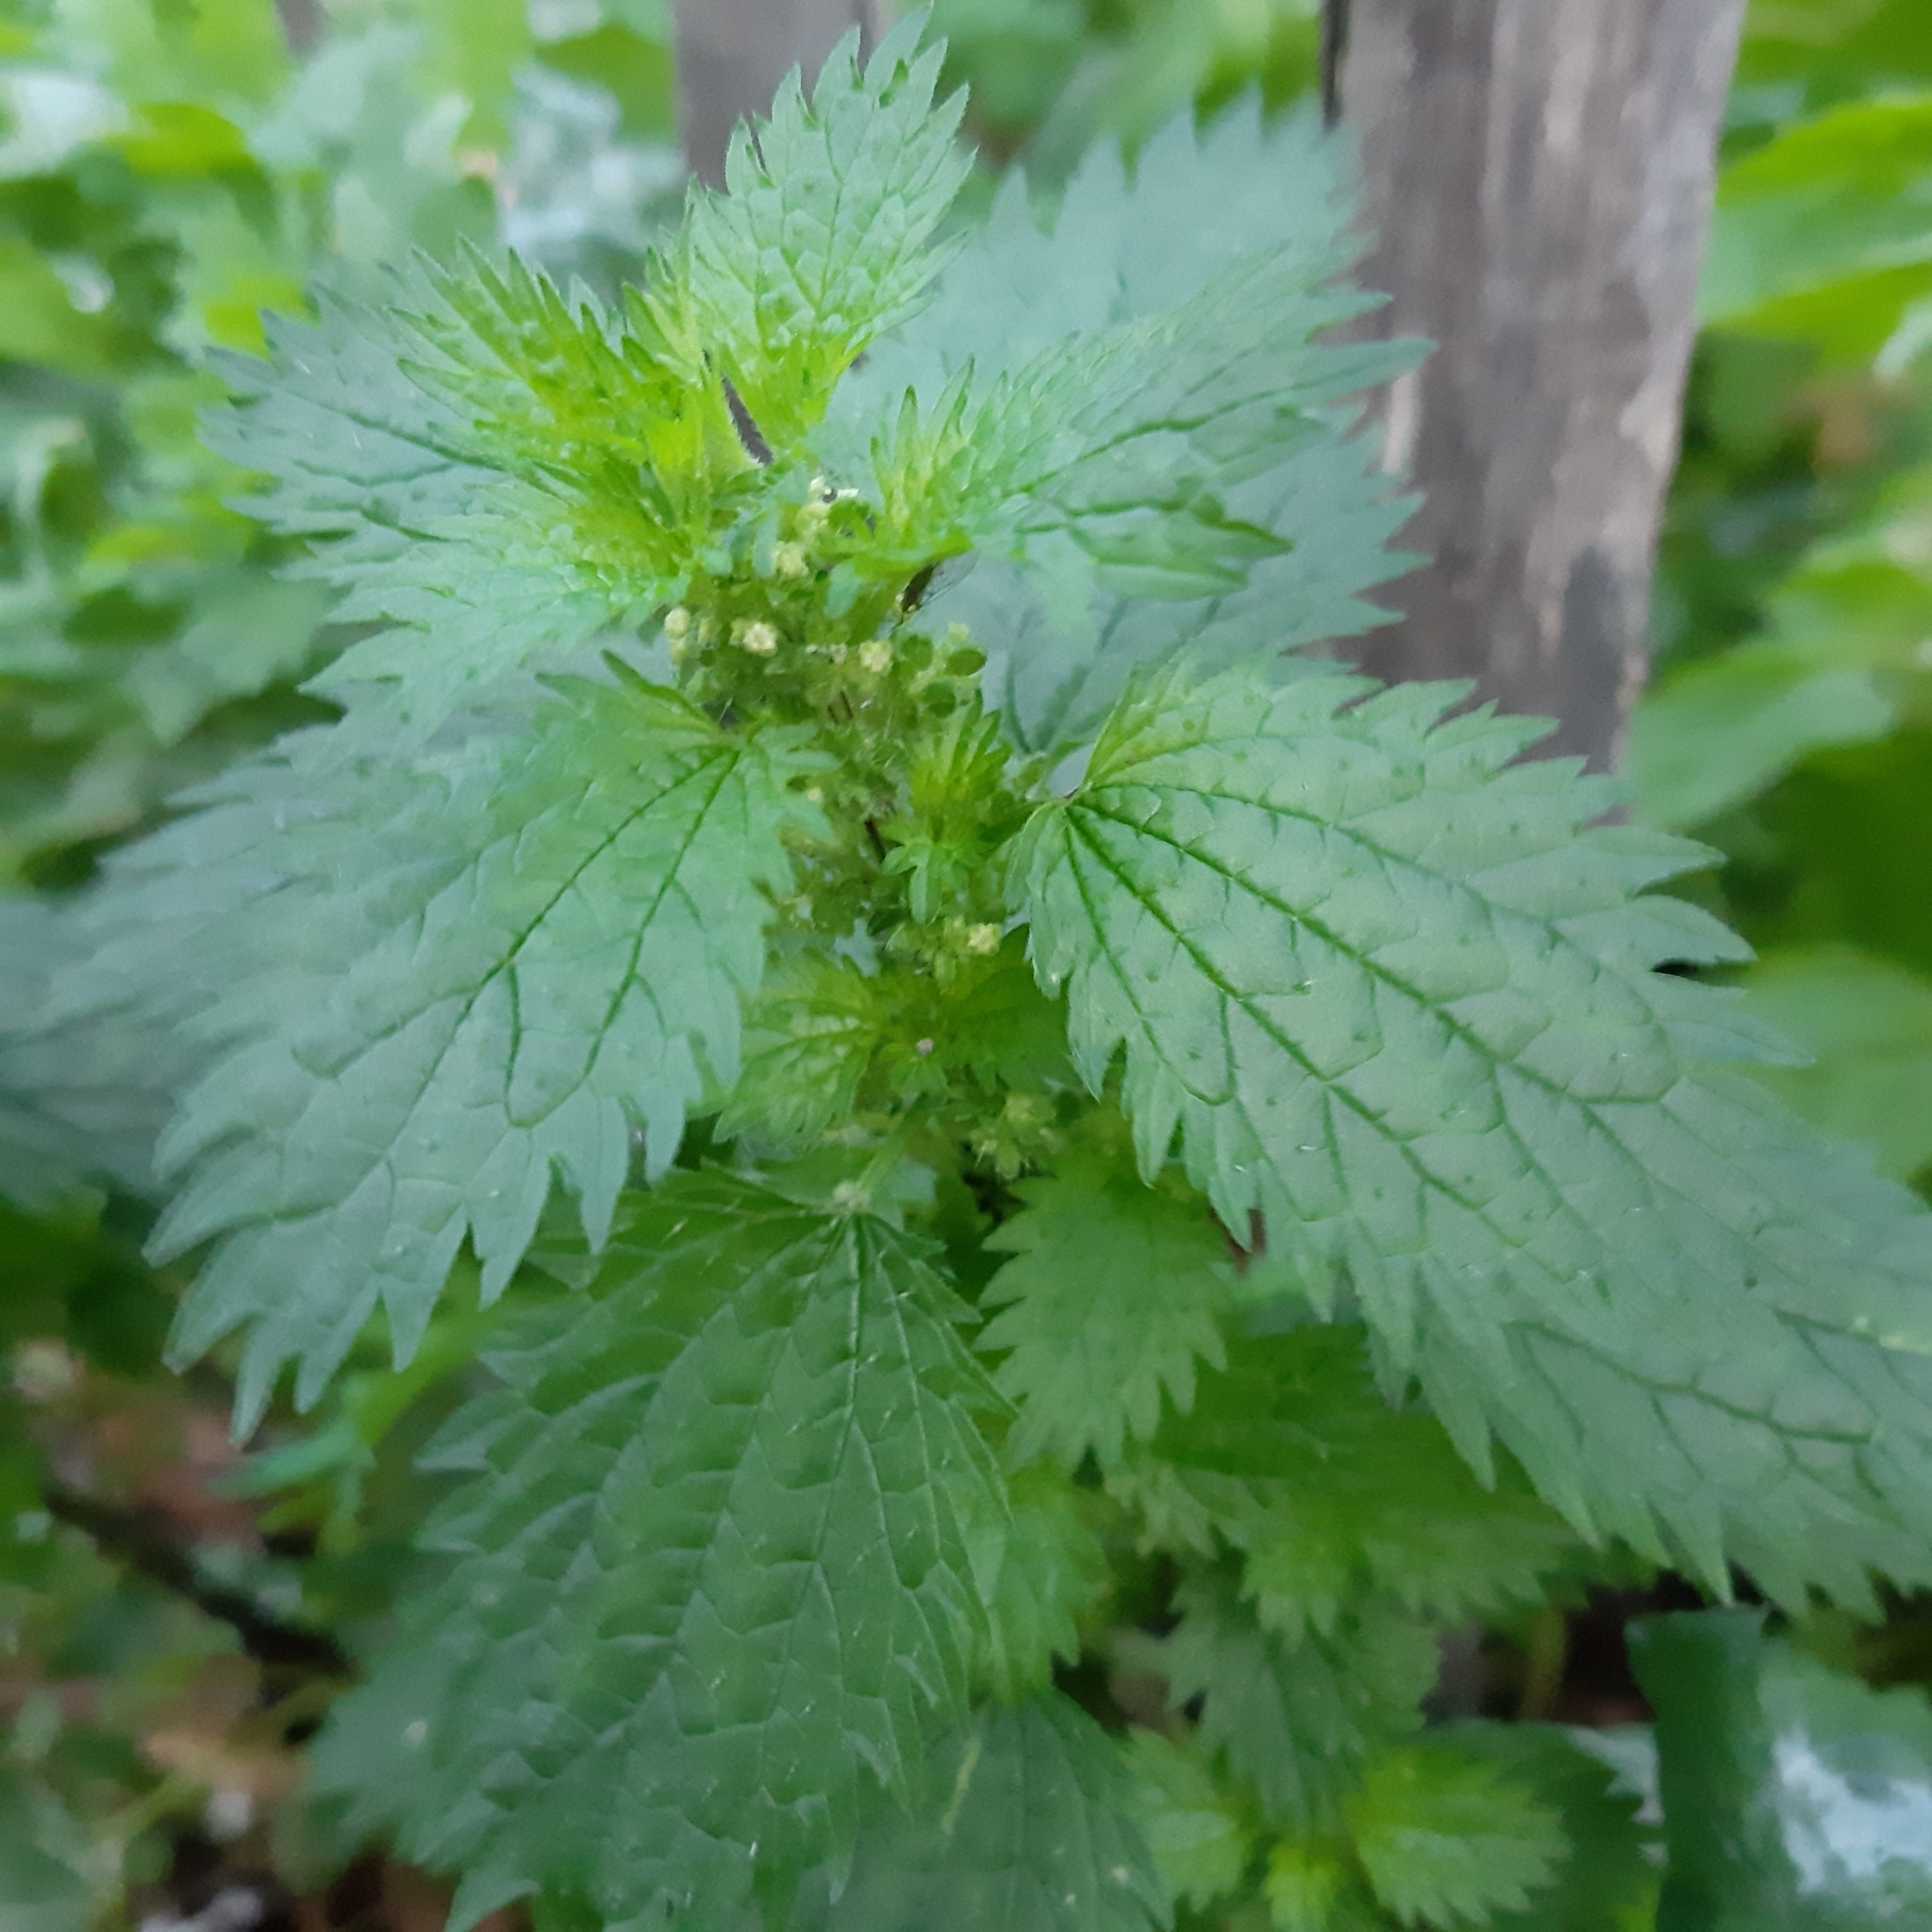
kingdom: Plantae
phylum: Tracheophyta
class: Magnoliopsida
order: Rosales
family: Urticaceae
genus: Urtica
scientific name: Urtica urens
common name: Dwarf nettle
